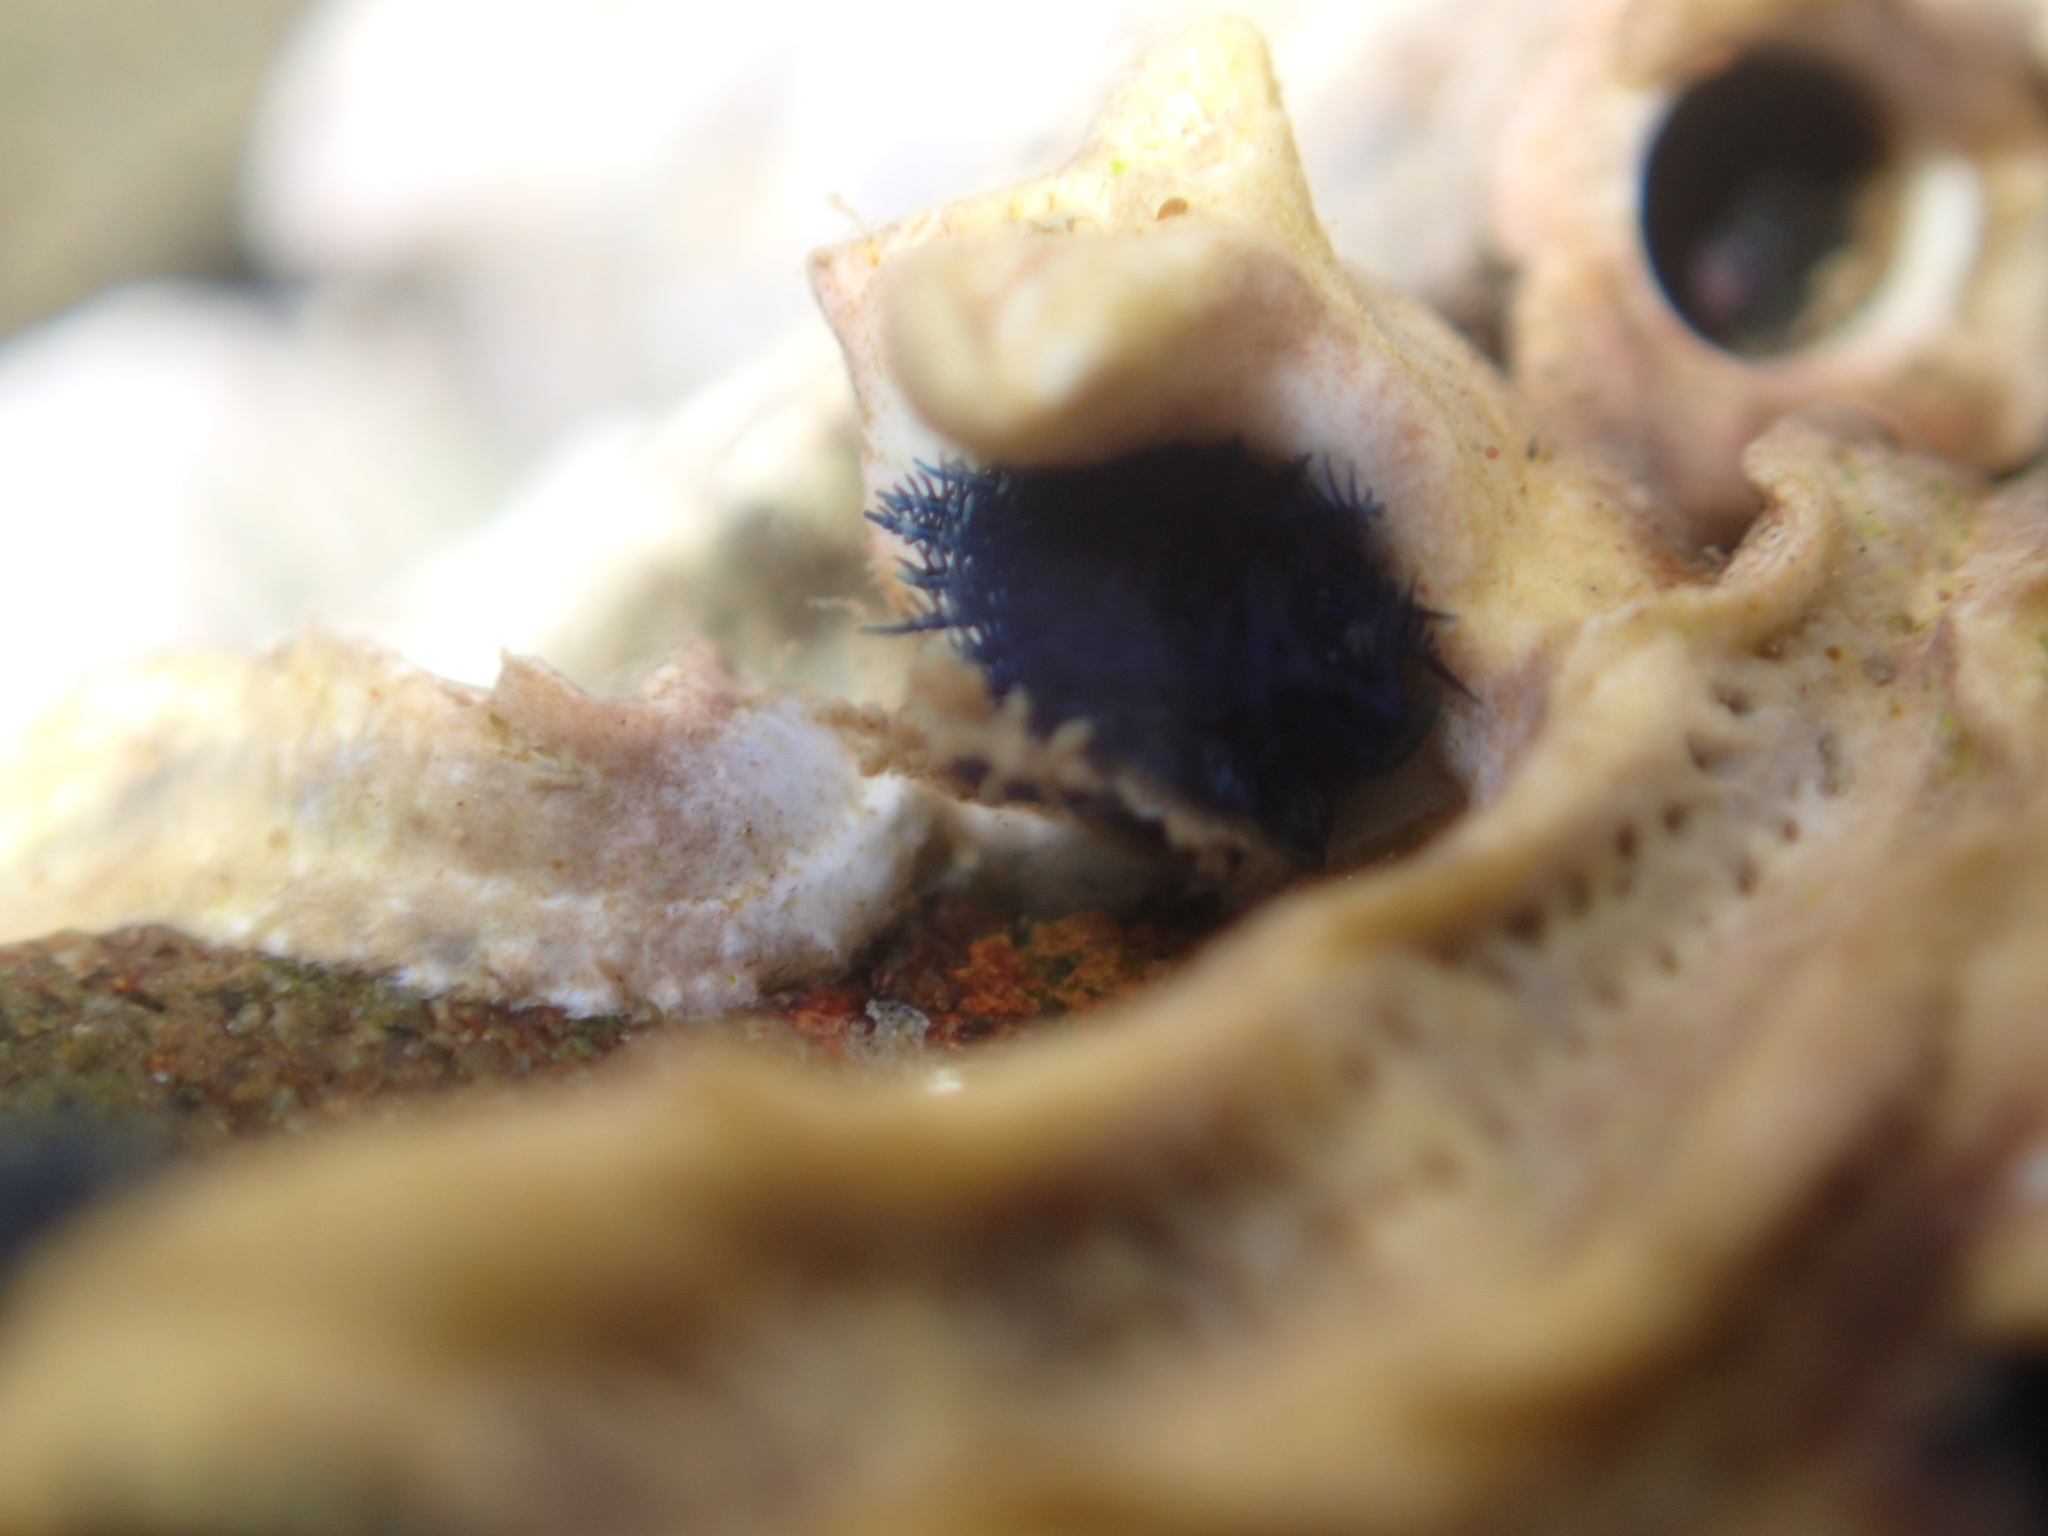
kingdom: Animalia
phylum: Annelida
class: Polychaeta
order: Sabellida
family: Serpulidae
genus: Spirobranchus
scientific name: Spirobranchus cariniferus
